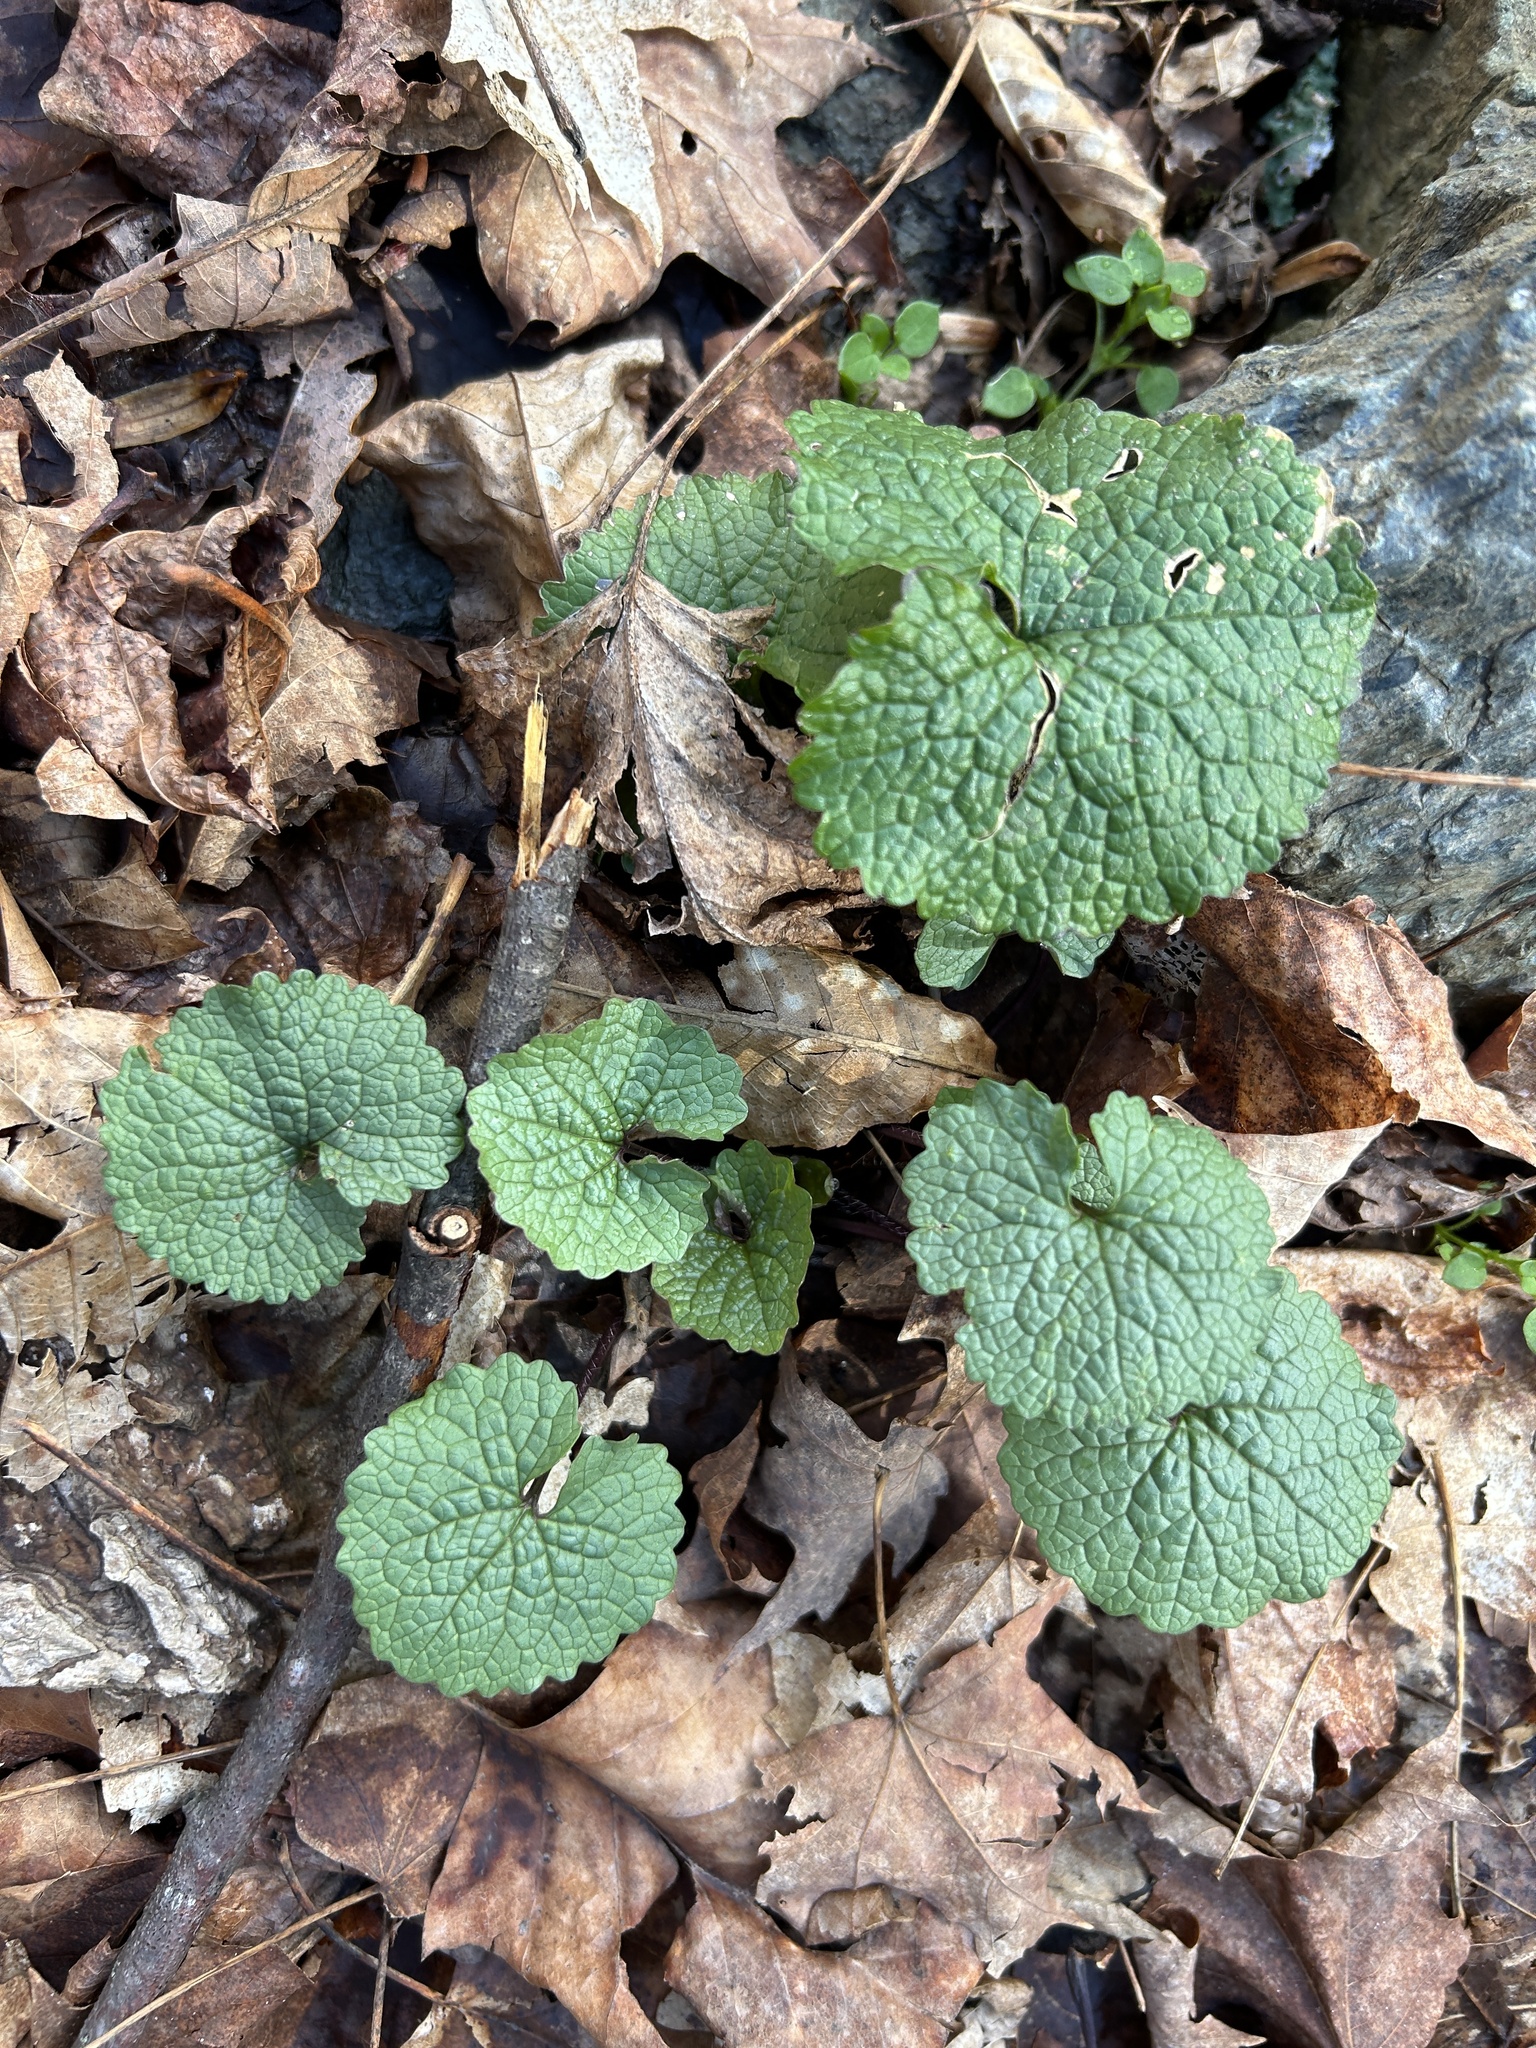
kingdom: Plantae
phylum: Tracheophyta
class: Magnoliopsida
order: Brassicales
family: Brassicaceae
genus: Alliaria
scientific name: Alliaria petiolata
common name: Garlic mustard
